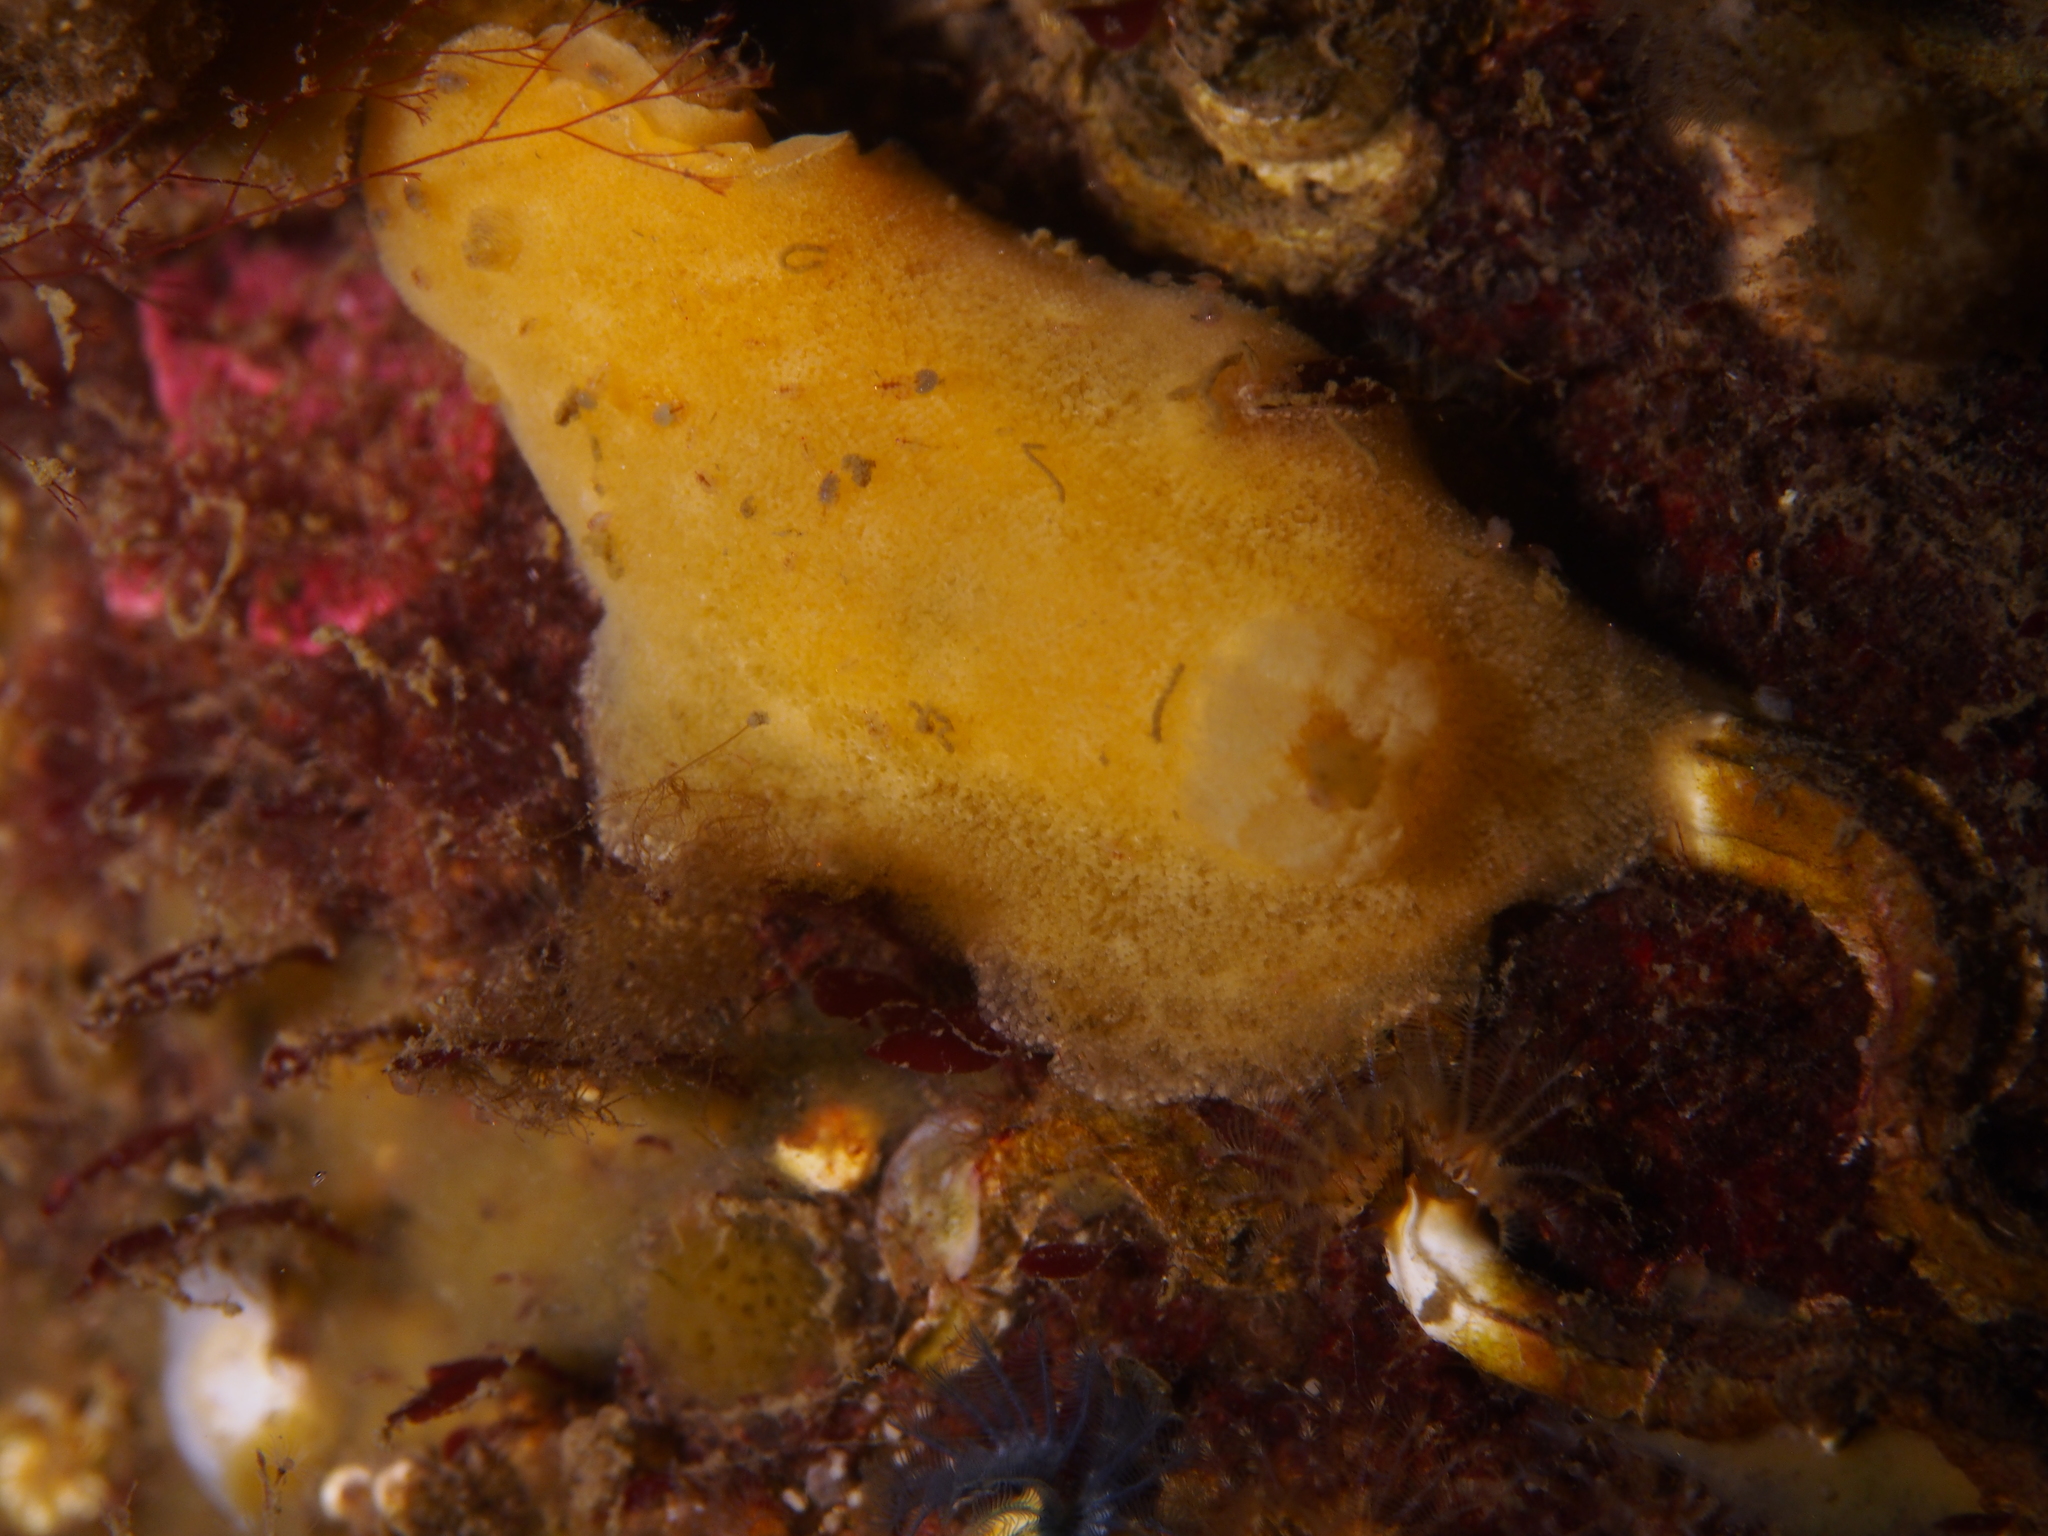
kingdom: Animalia
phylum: Mollusca
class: Gastropoda
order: Nudibranchia
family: Discodorididae
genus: Jorunna
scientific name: Jorunna tomentosa
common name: Grey sea slug
